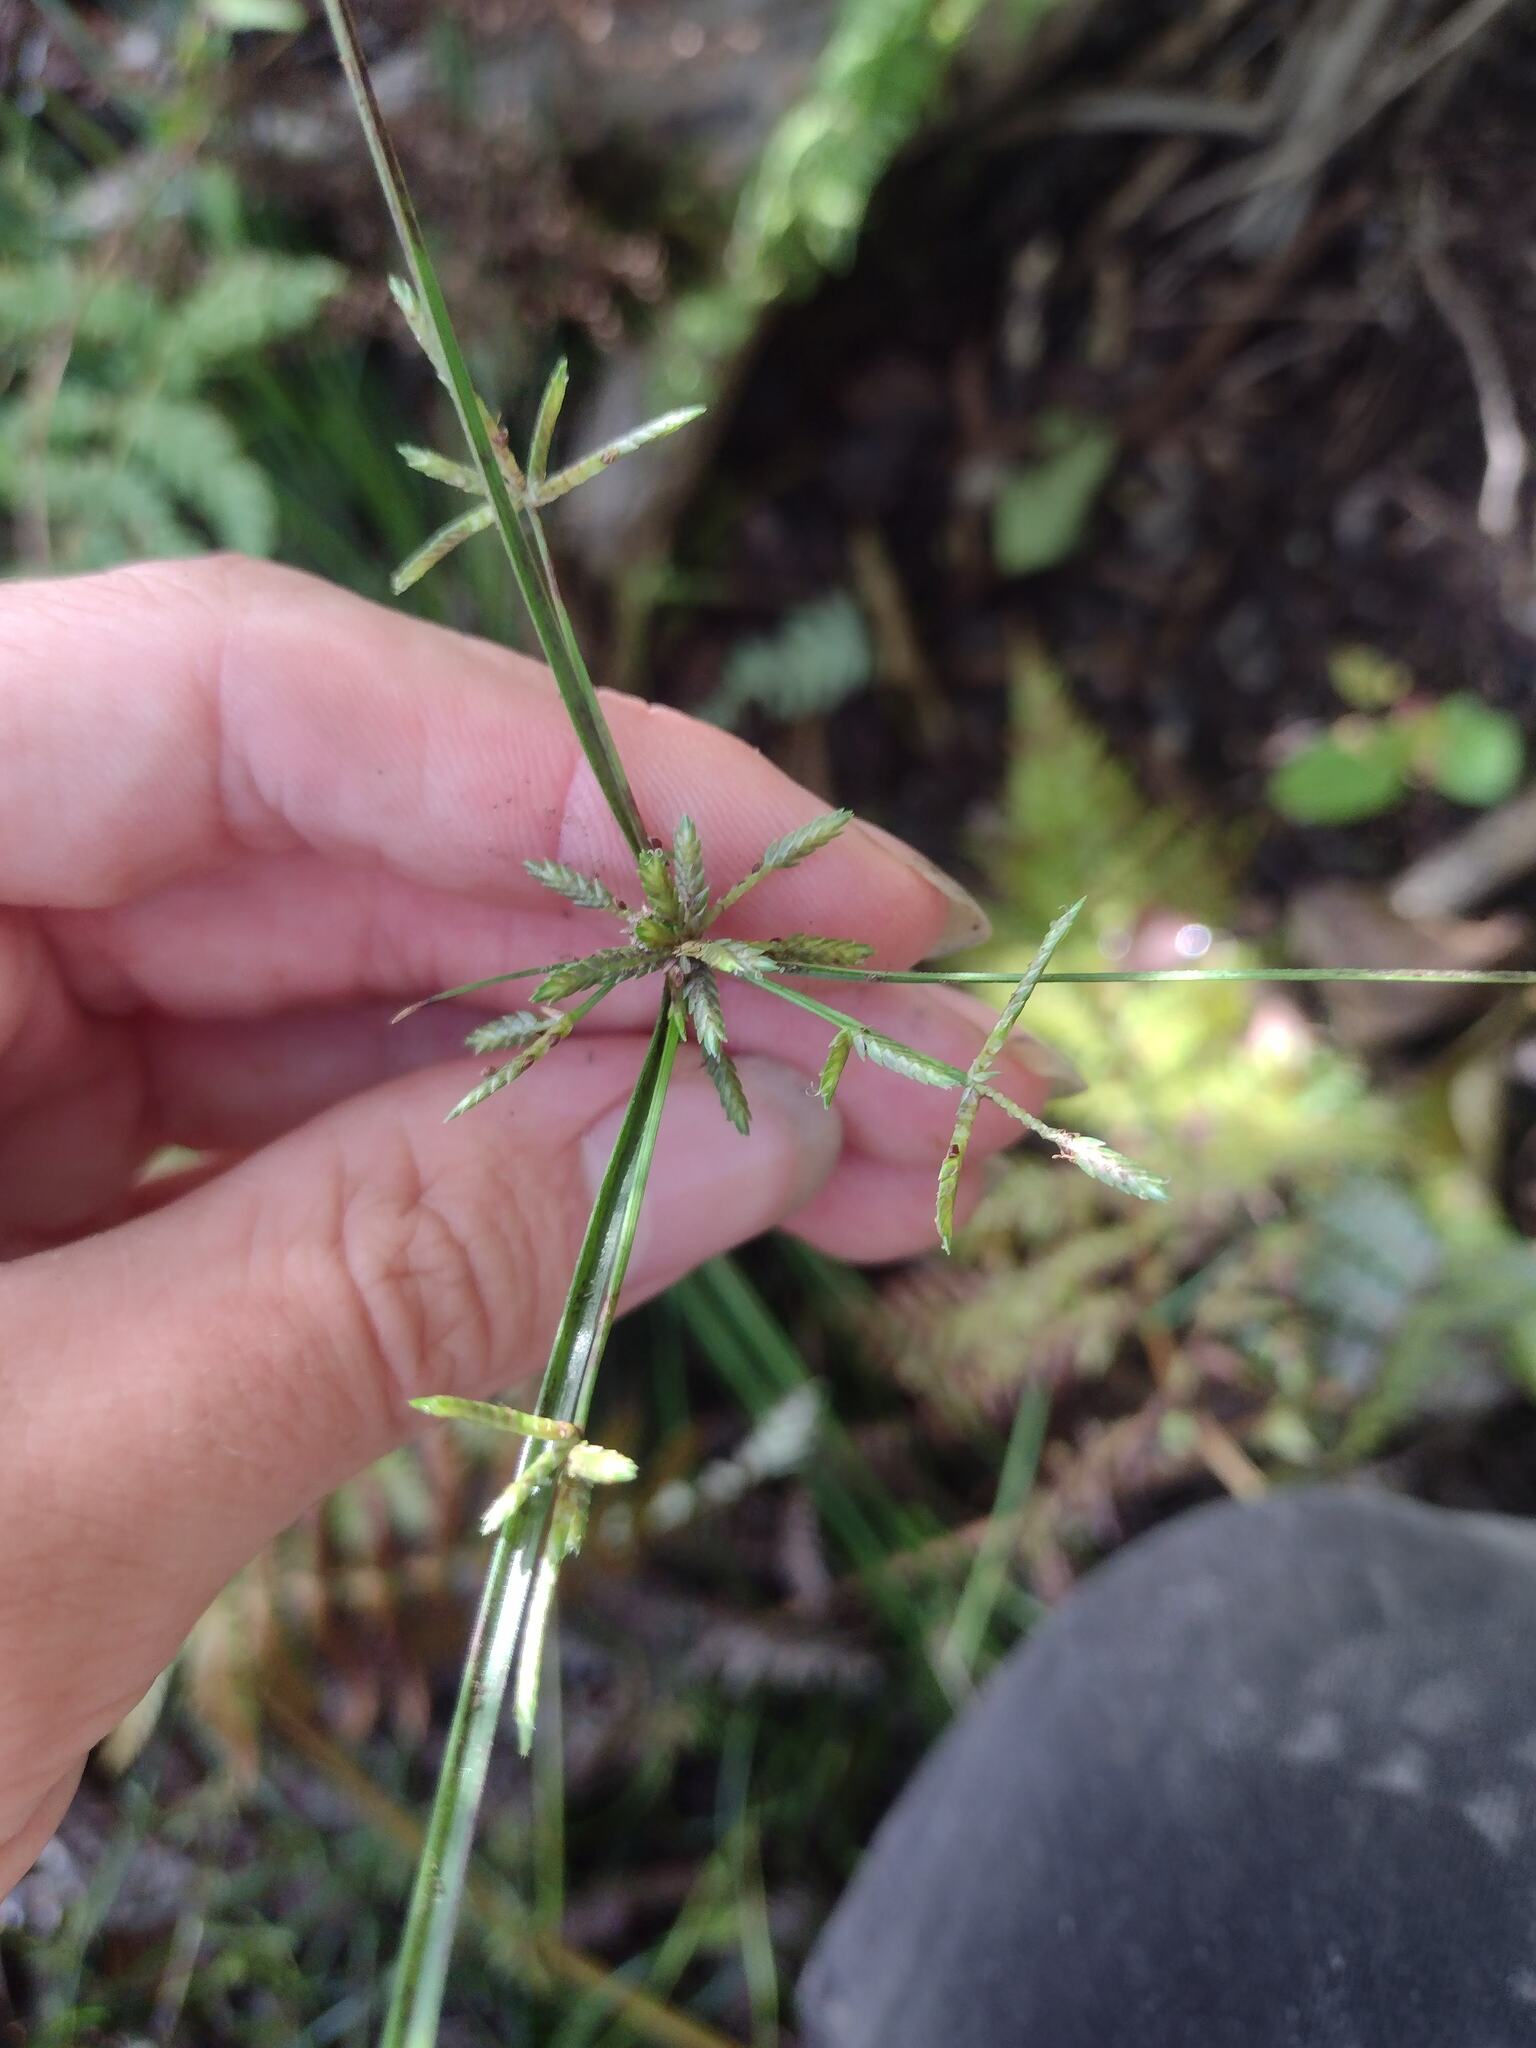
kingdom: Plantae
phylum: Tracheophyta
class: Liliopsida
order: Poales
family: Cyperaceae
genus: Cyperus
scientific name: Cyperus trinervis
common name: Australian flatsedge
